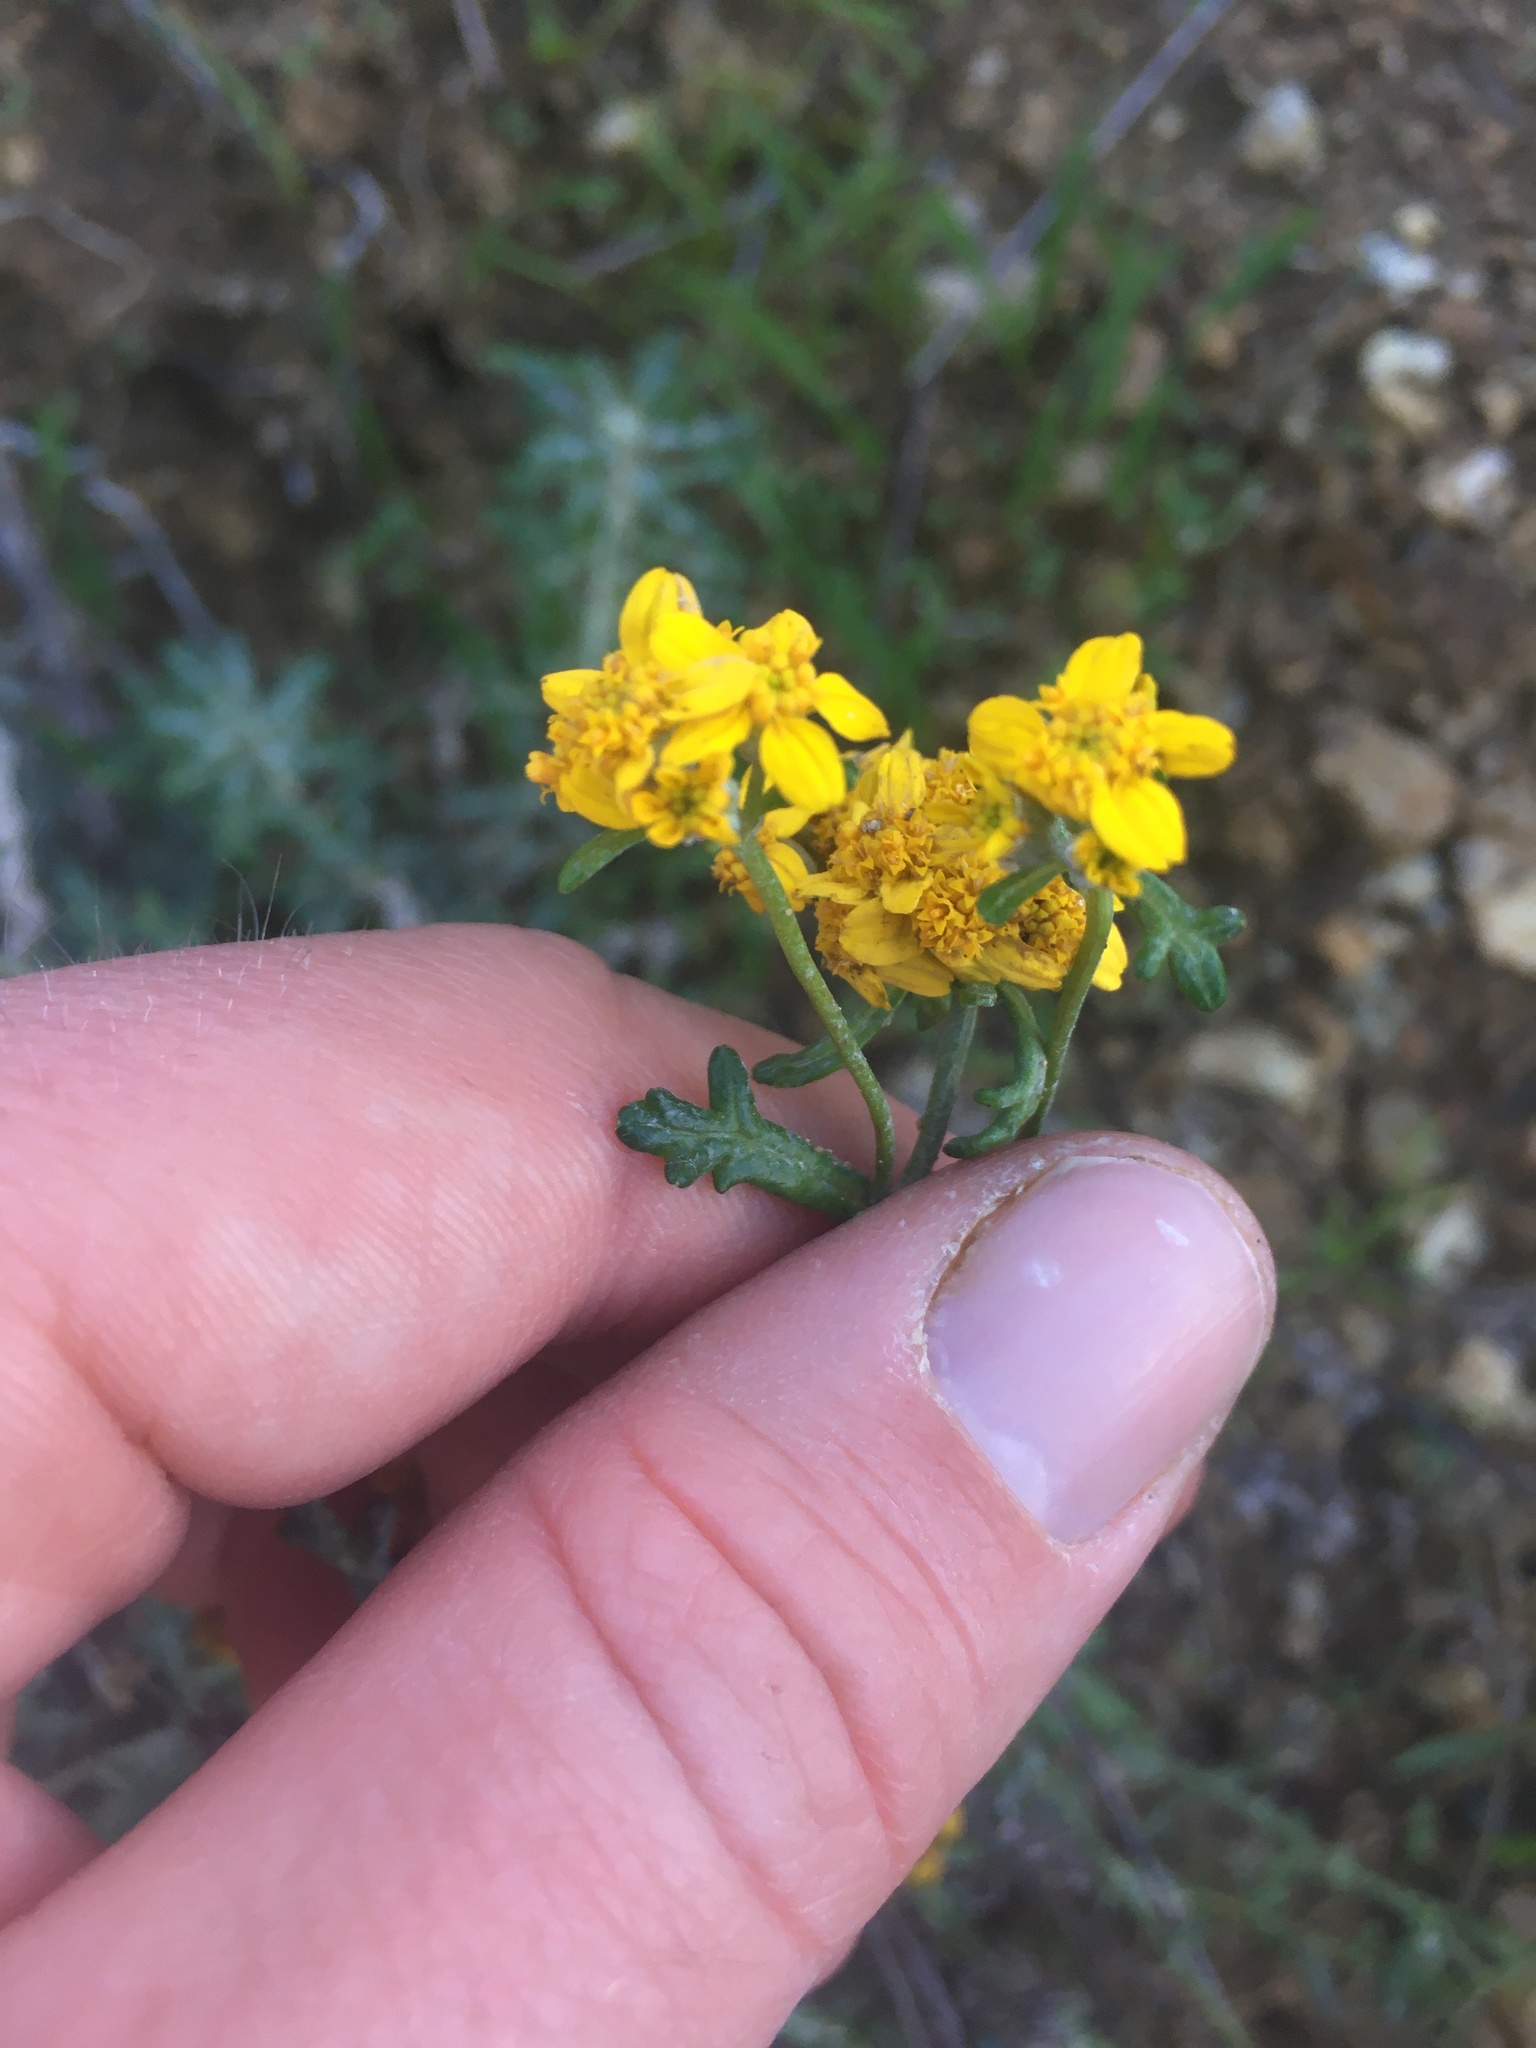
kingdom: Plantae
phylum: Tracheophyta
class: Magnoliopsida
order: Asterales
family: Asteraceae
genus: Eriophyllum
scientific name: Eriophyllum confertiflorum
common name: Golden-yarrow
